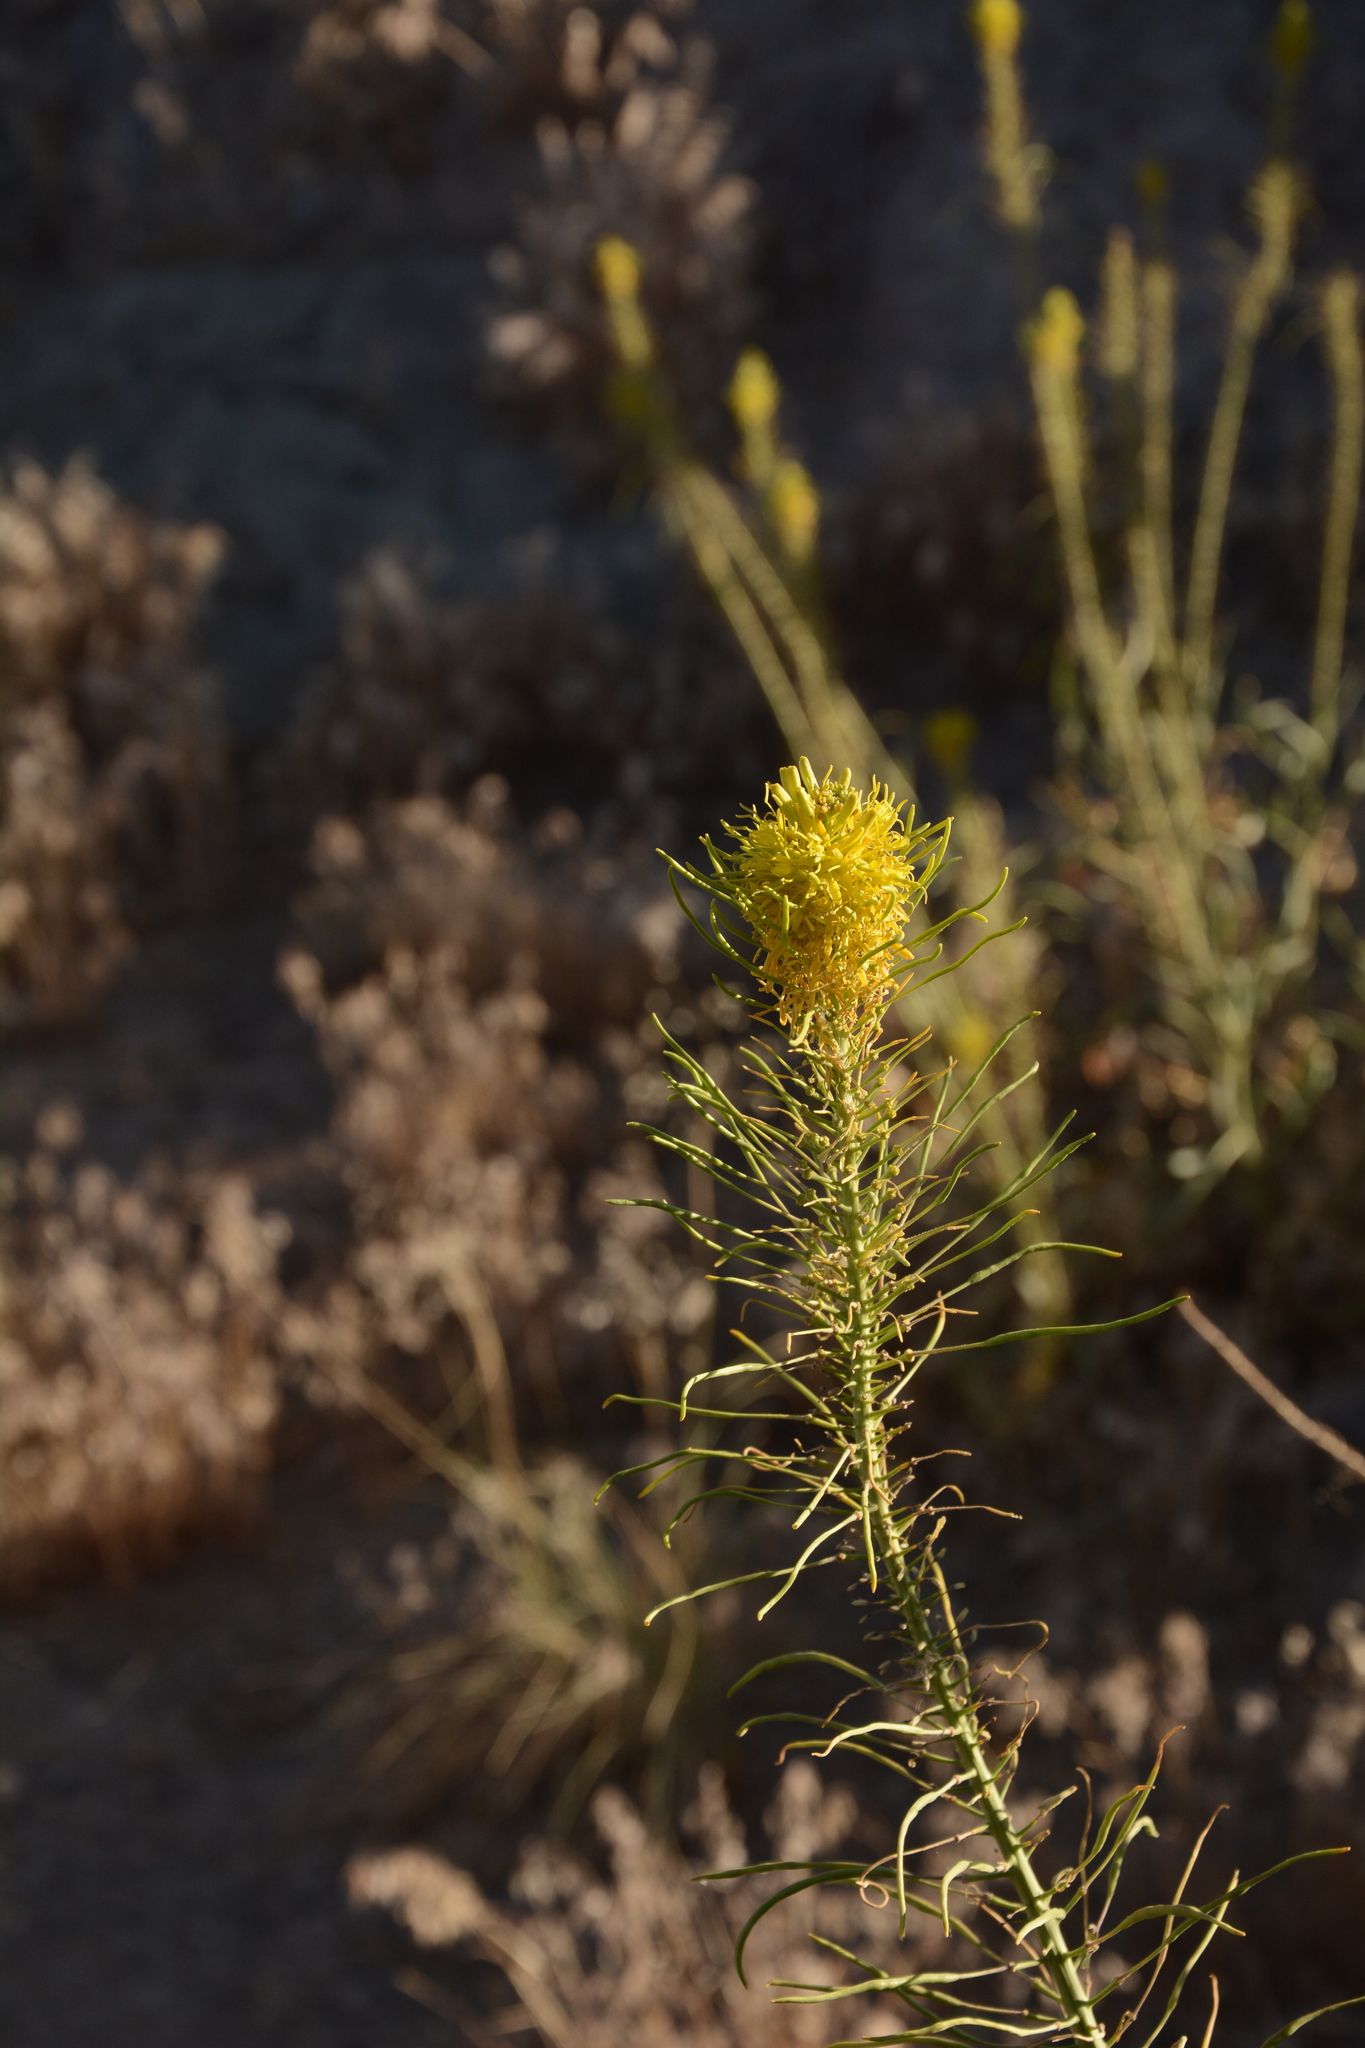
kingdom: Plantae
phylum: Tracheophyta
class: Magnoliopsida
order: Brassicales
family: Brassicaceae
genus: Stanleya
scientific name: Stanleya pinnata
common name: Prince's-plume
